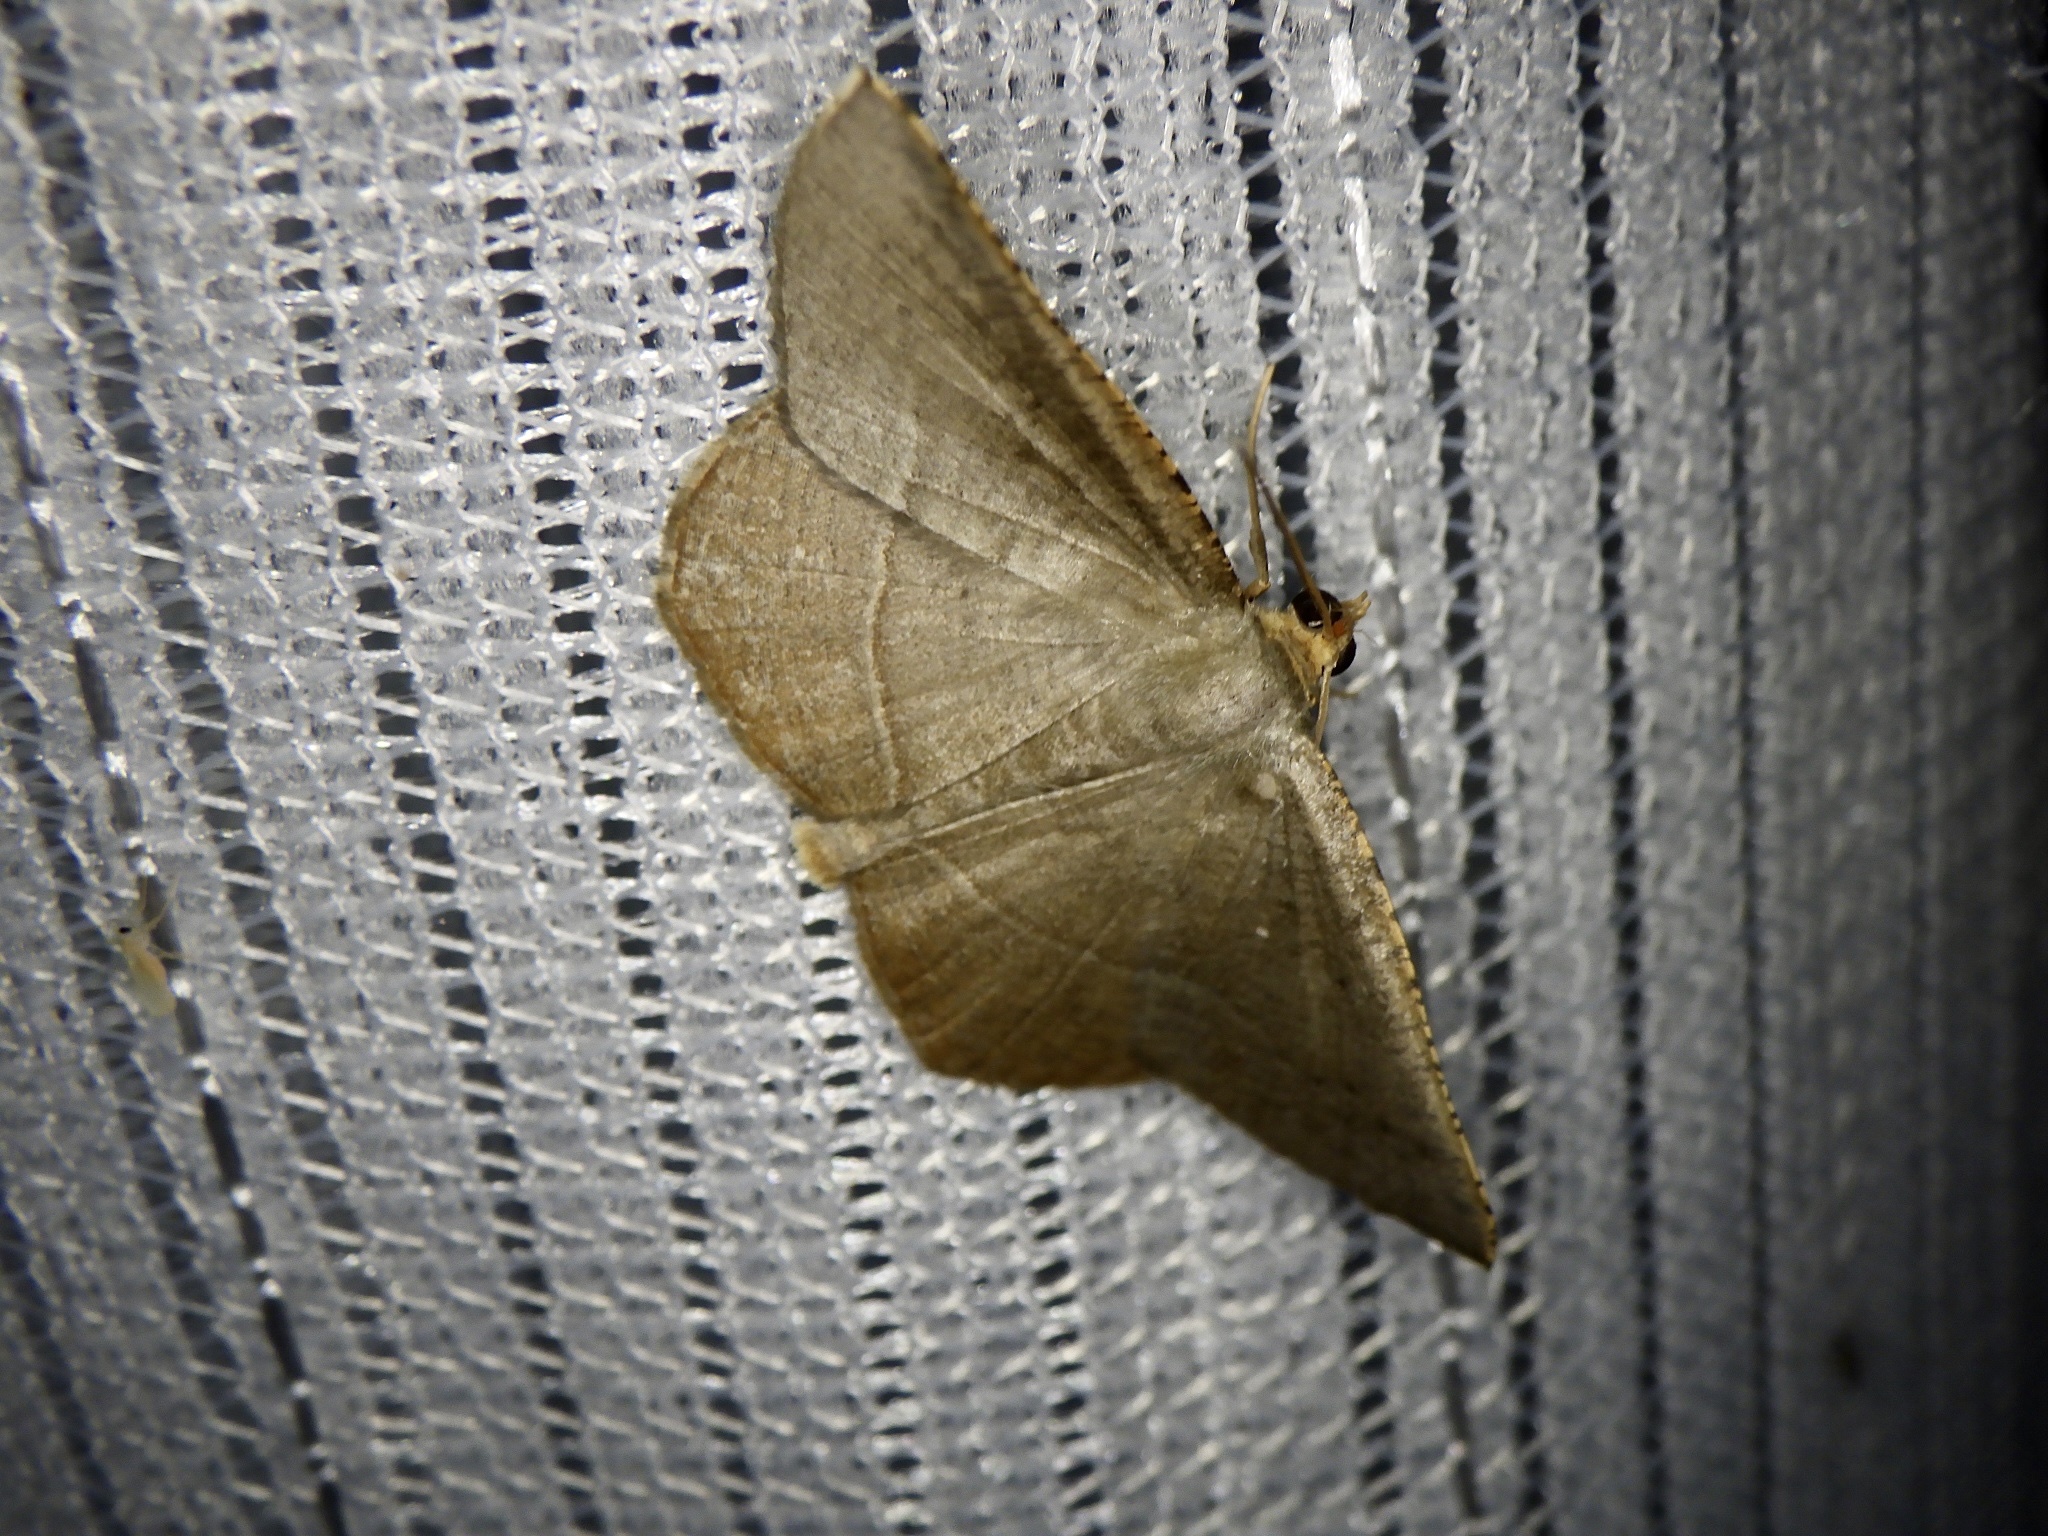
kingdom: Animalia
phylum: Arthropoda
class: Insecta
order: Lepidoptera
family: Geometridae
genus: Plesiomorpha
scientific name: Plesiomorpha flaviceps
